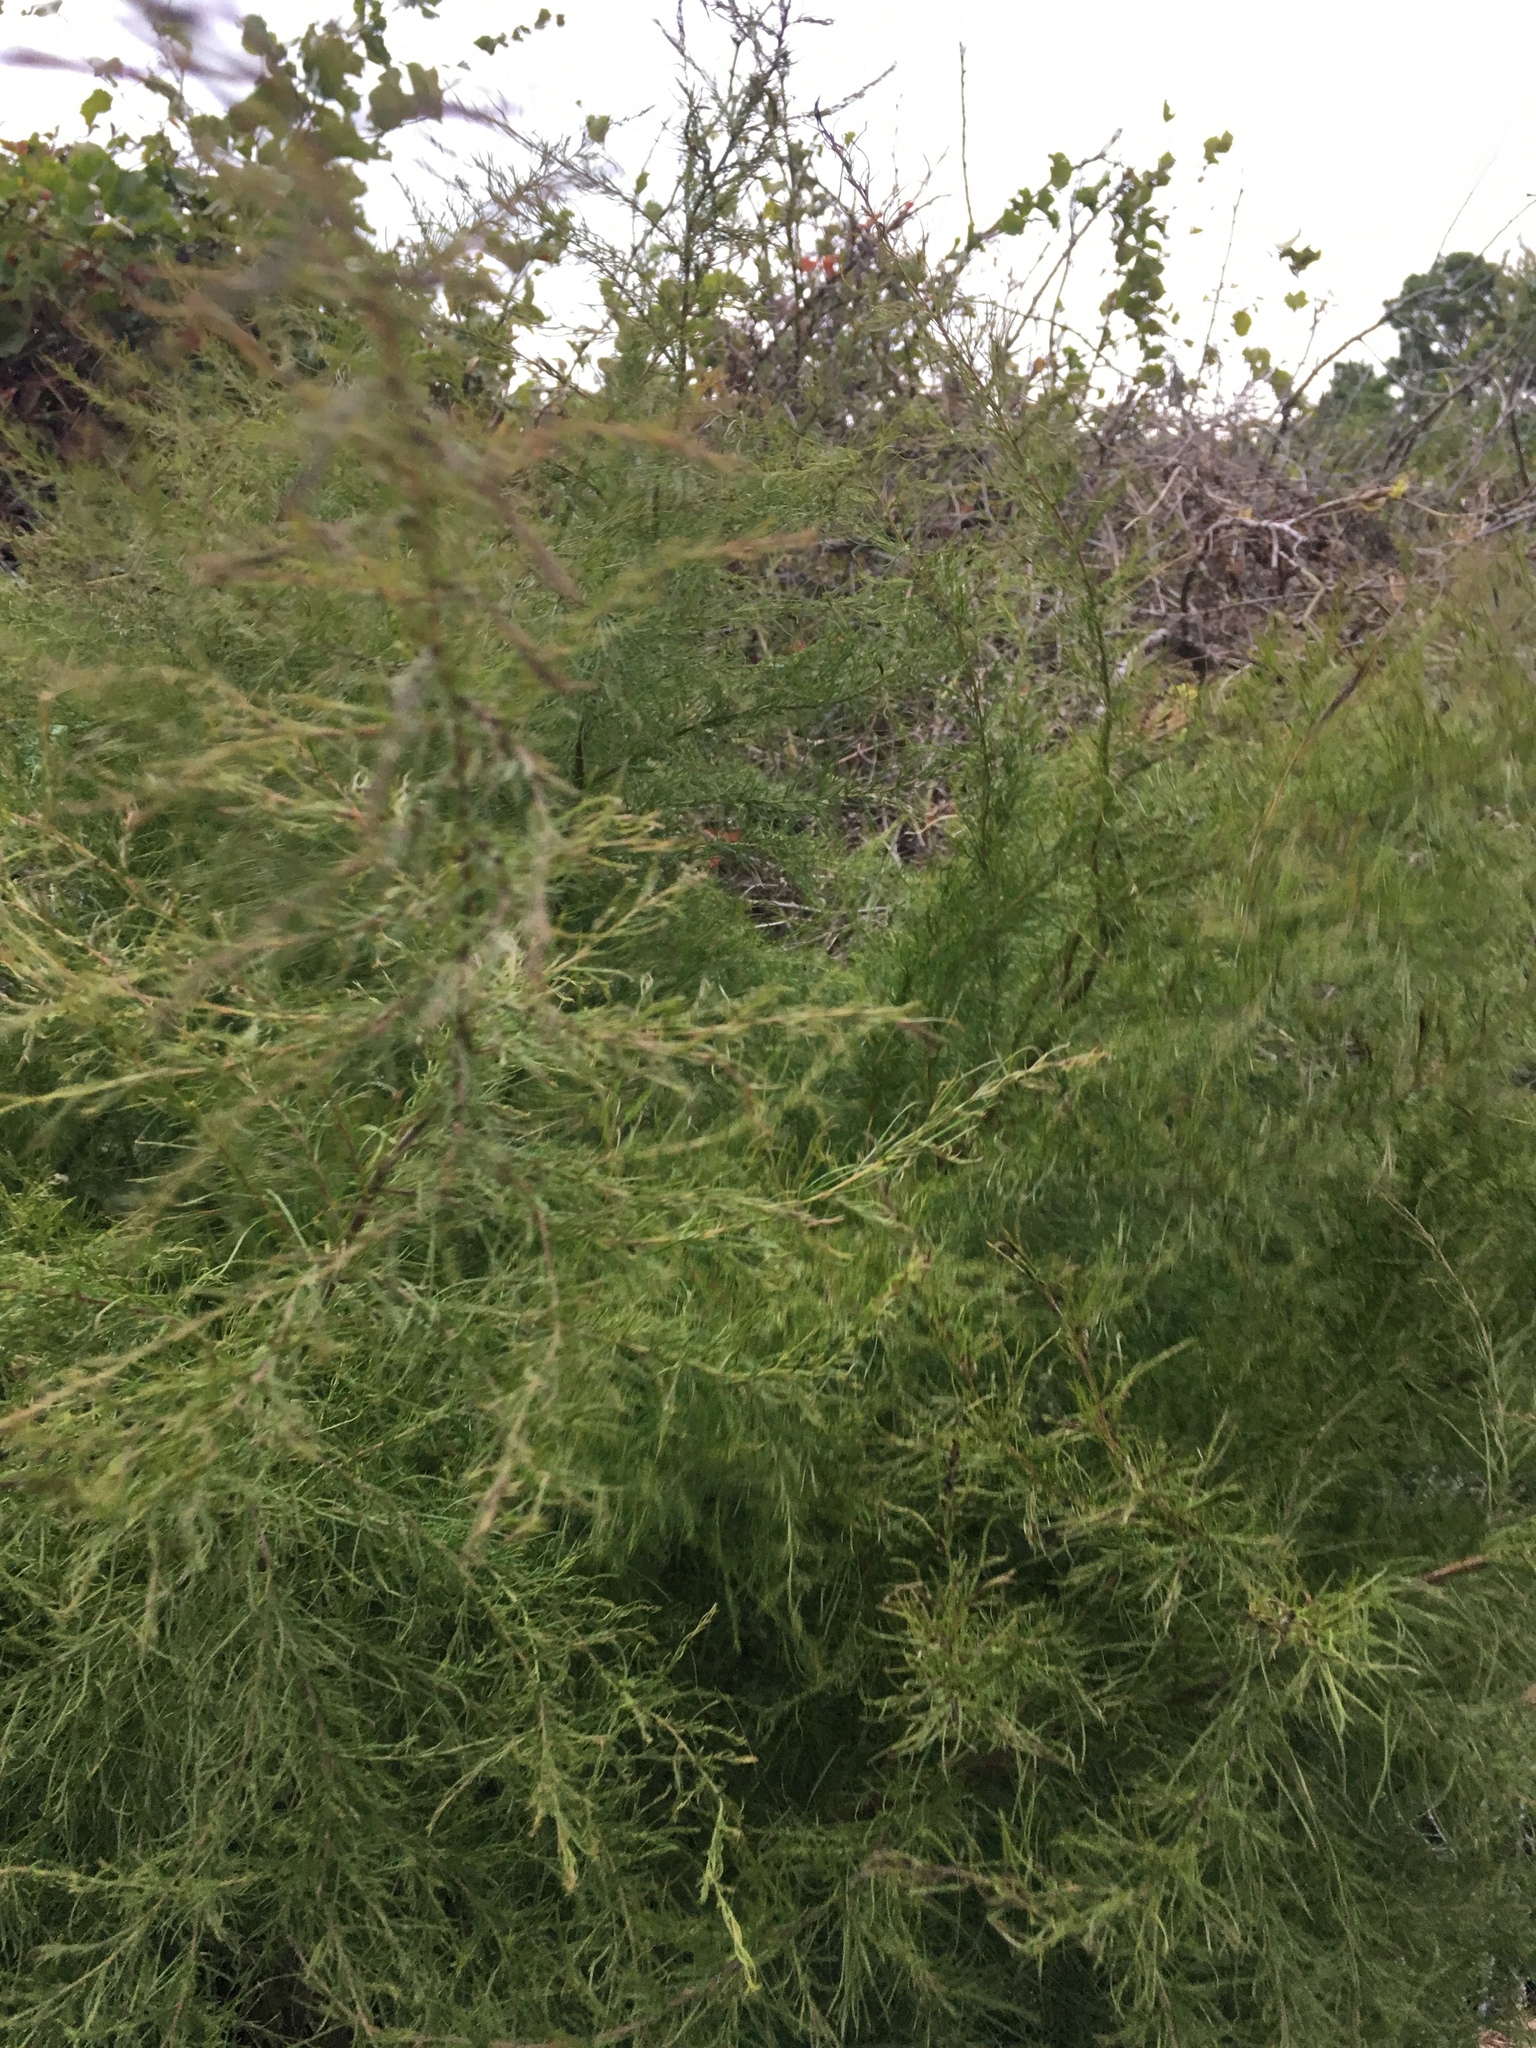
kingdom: Plantae
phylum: Tracheophyta
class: Magnoliopsida
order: Asterales
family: Asteraceae
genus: Eupatorium
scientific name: Eupatorium capillifolium
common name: Dog-fennel
